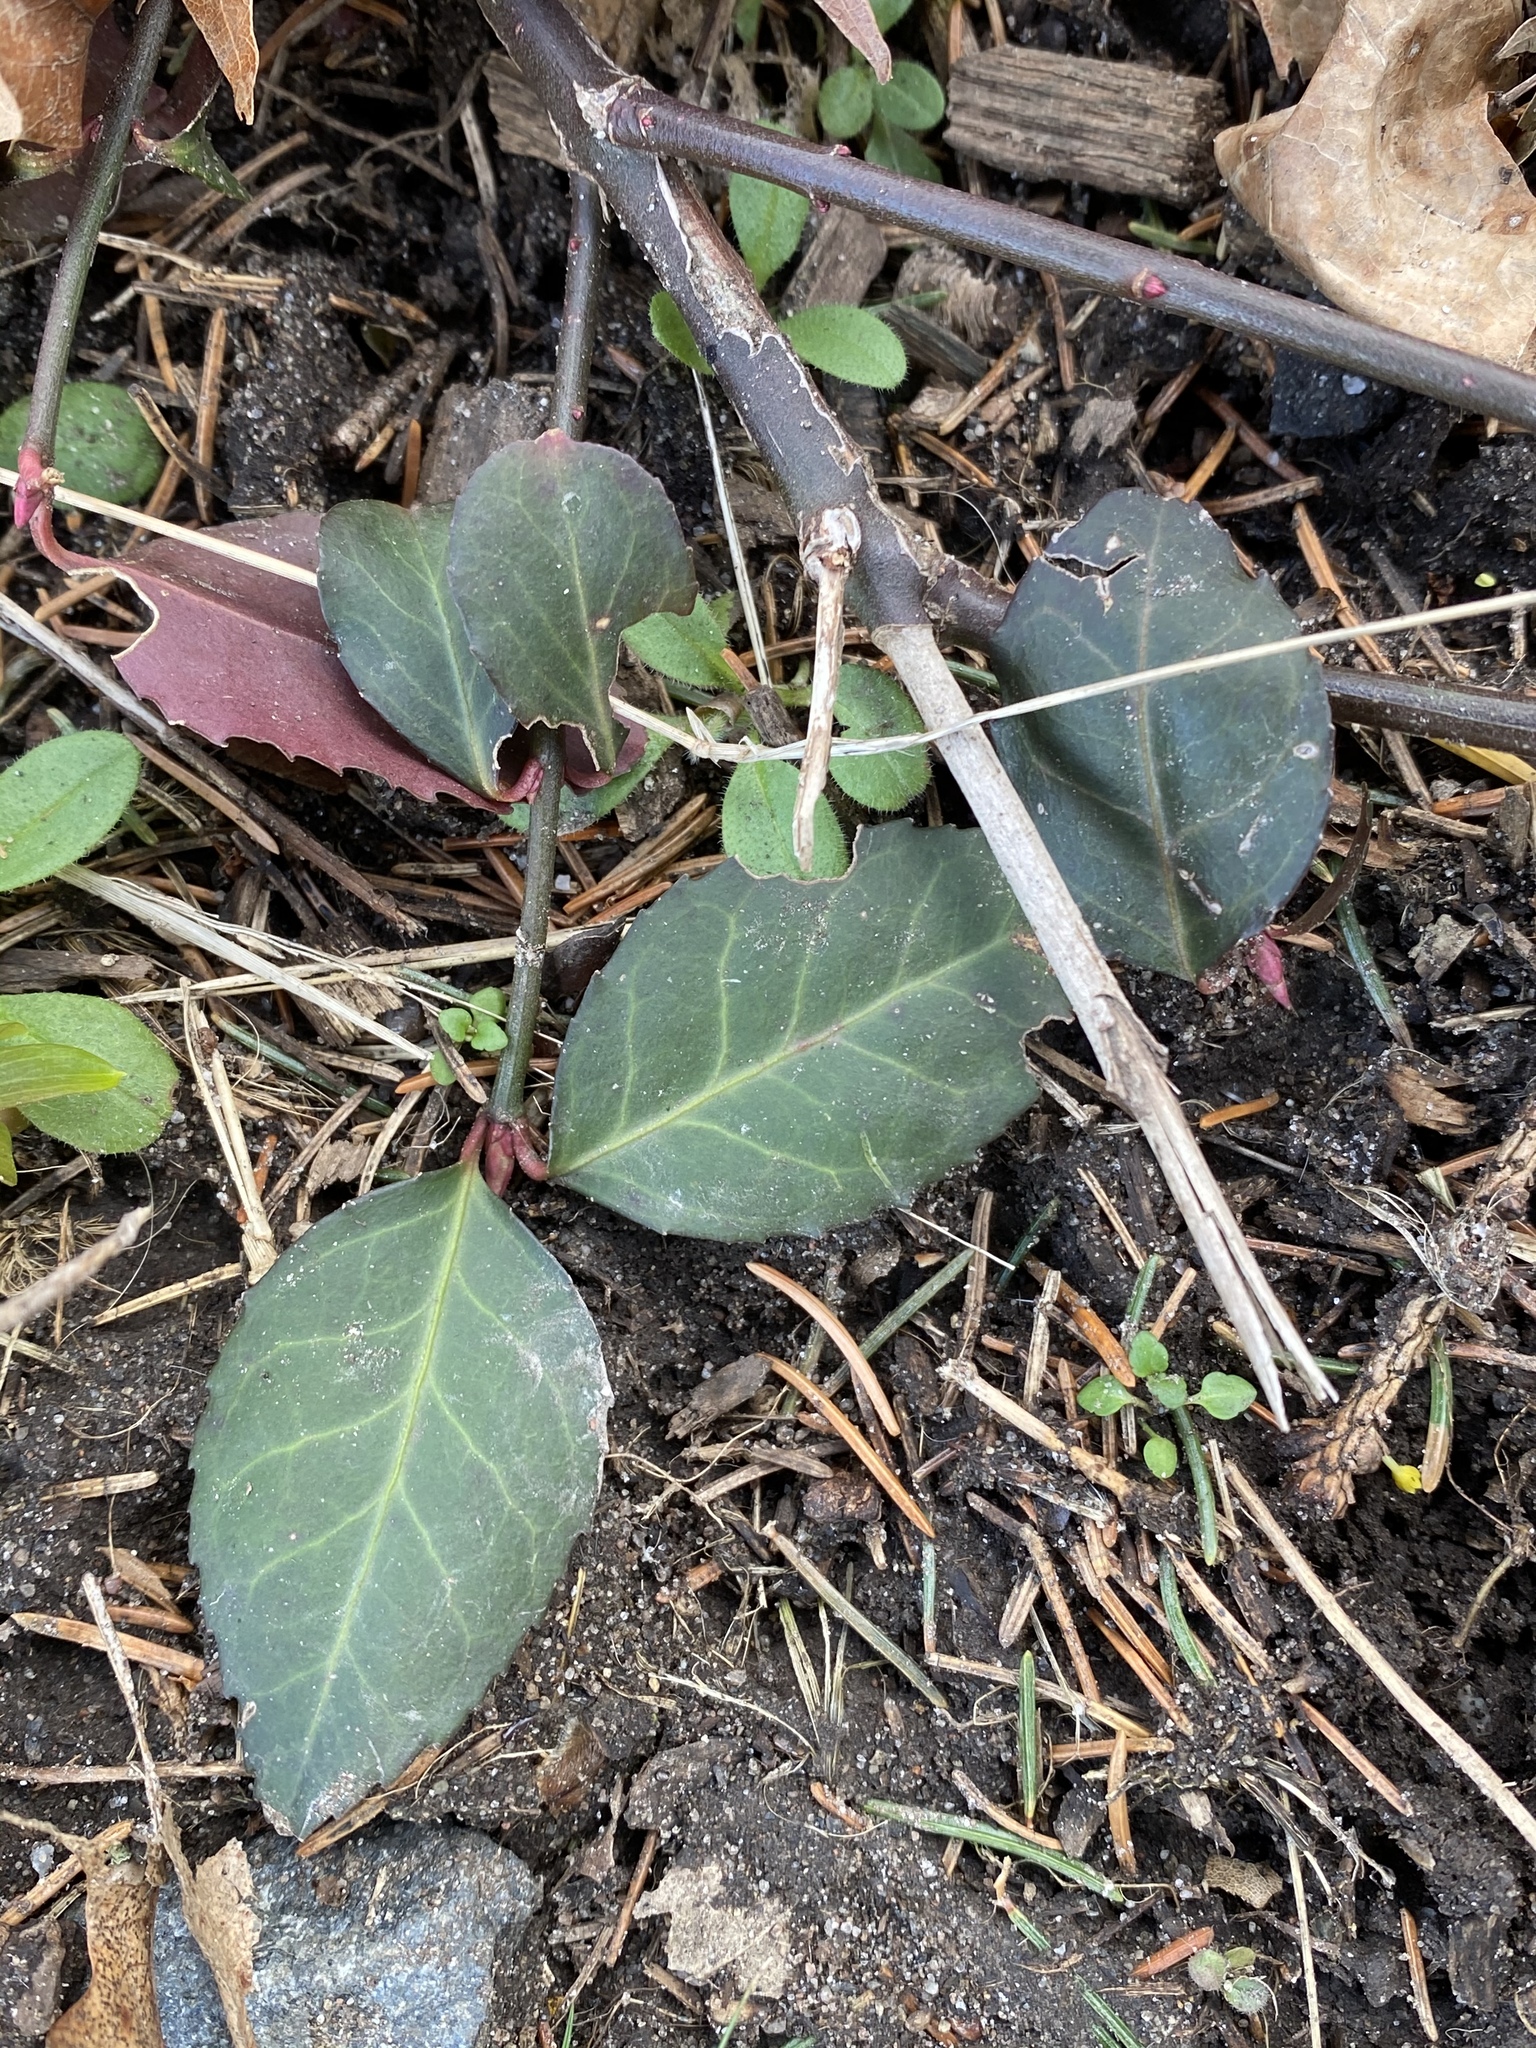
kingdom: Plantae
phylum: Tracheophyta
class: Magnoliopsida
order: Celastrales
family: Celastraceae
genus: Euonymus
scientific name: Euonymus fortunei
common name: Climbing euonymus
